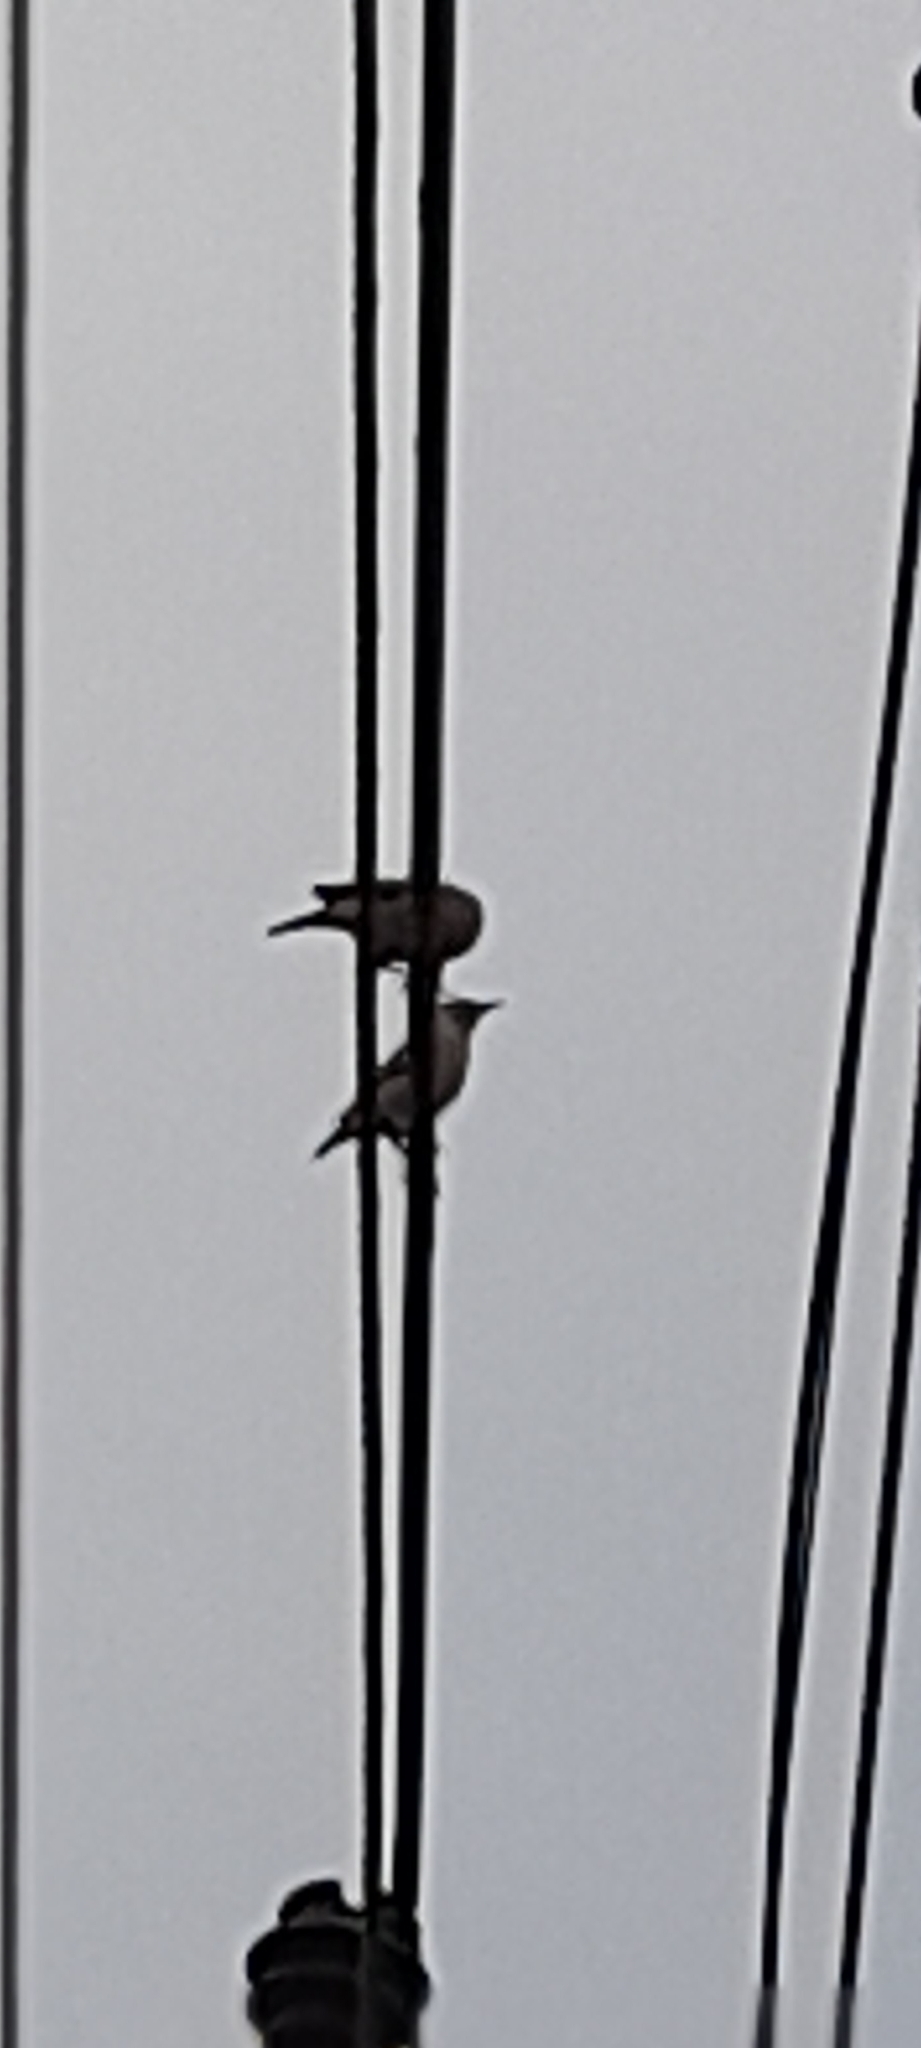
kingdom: Animalia
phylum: Chordata
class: Aves
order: Passeriformes
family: Sturnidae
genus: Sturnia
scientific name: Sturnia pagodarum
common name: Brahminy starling
